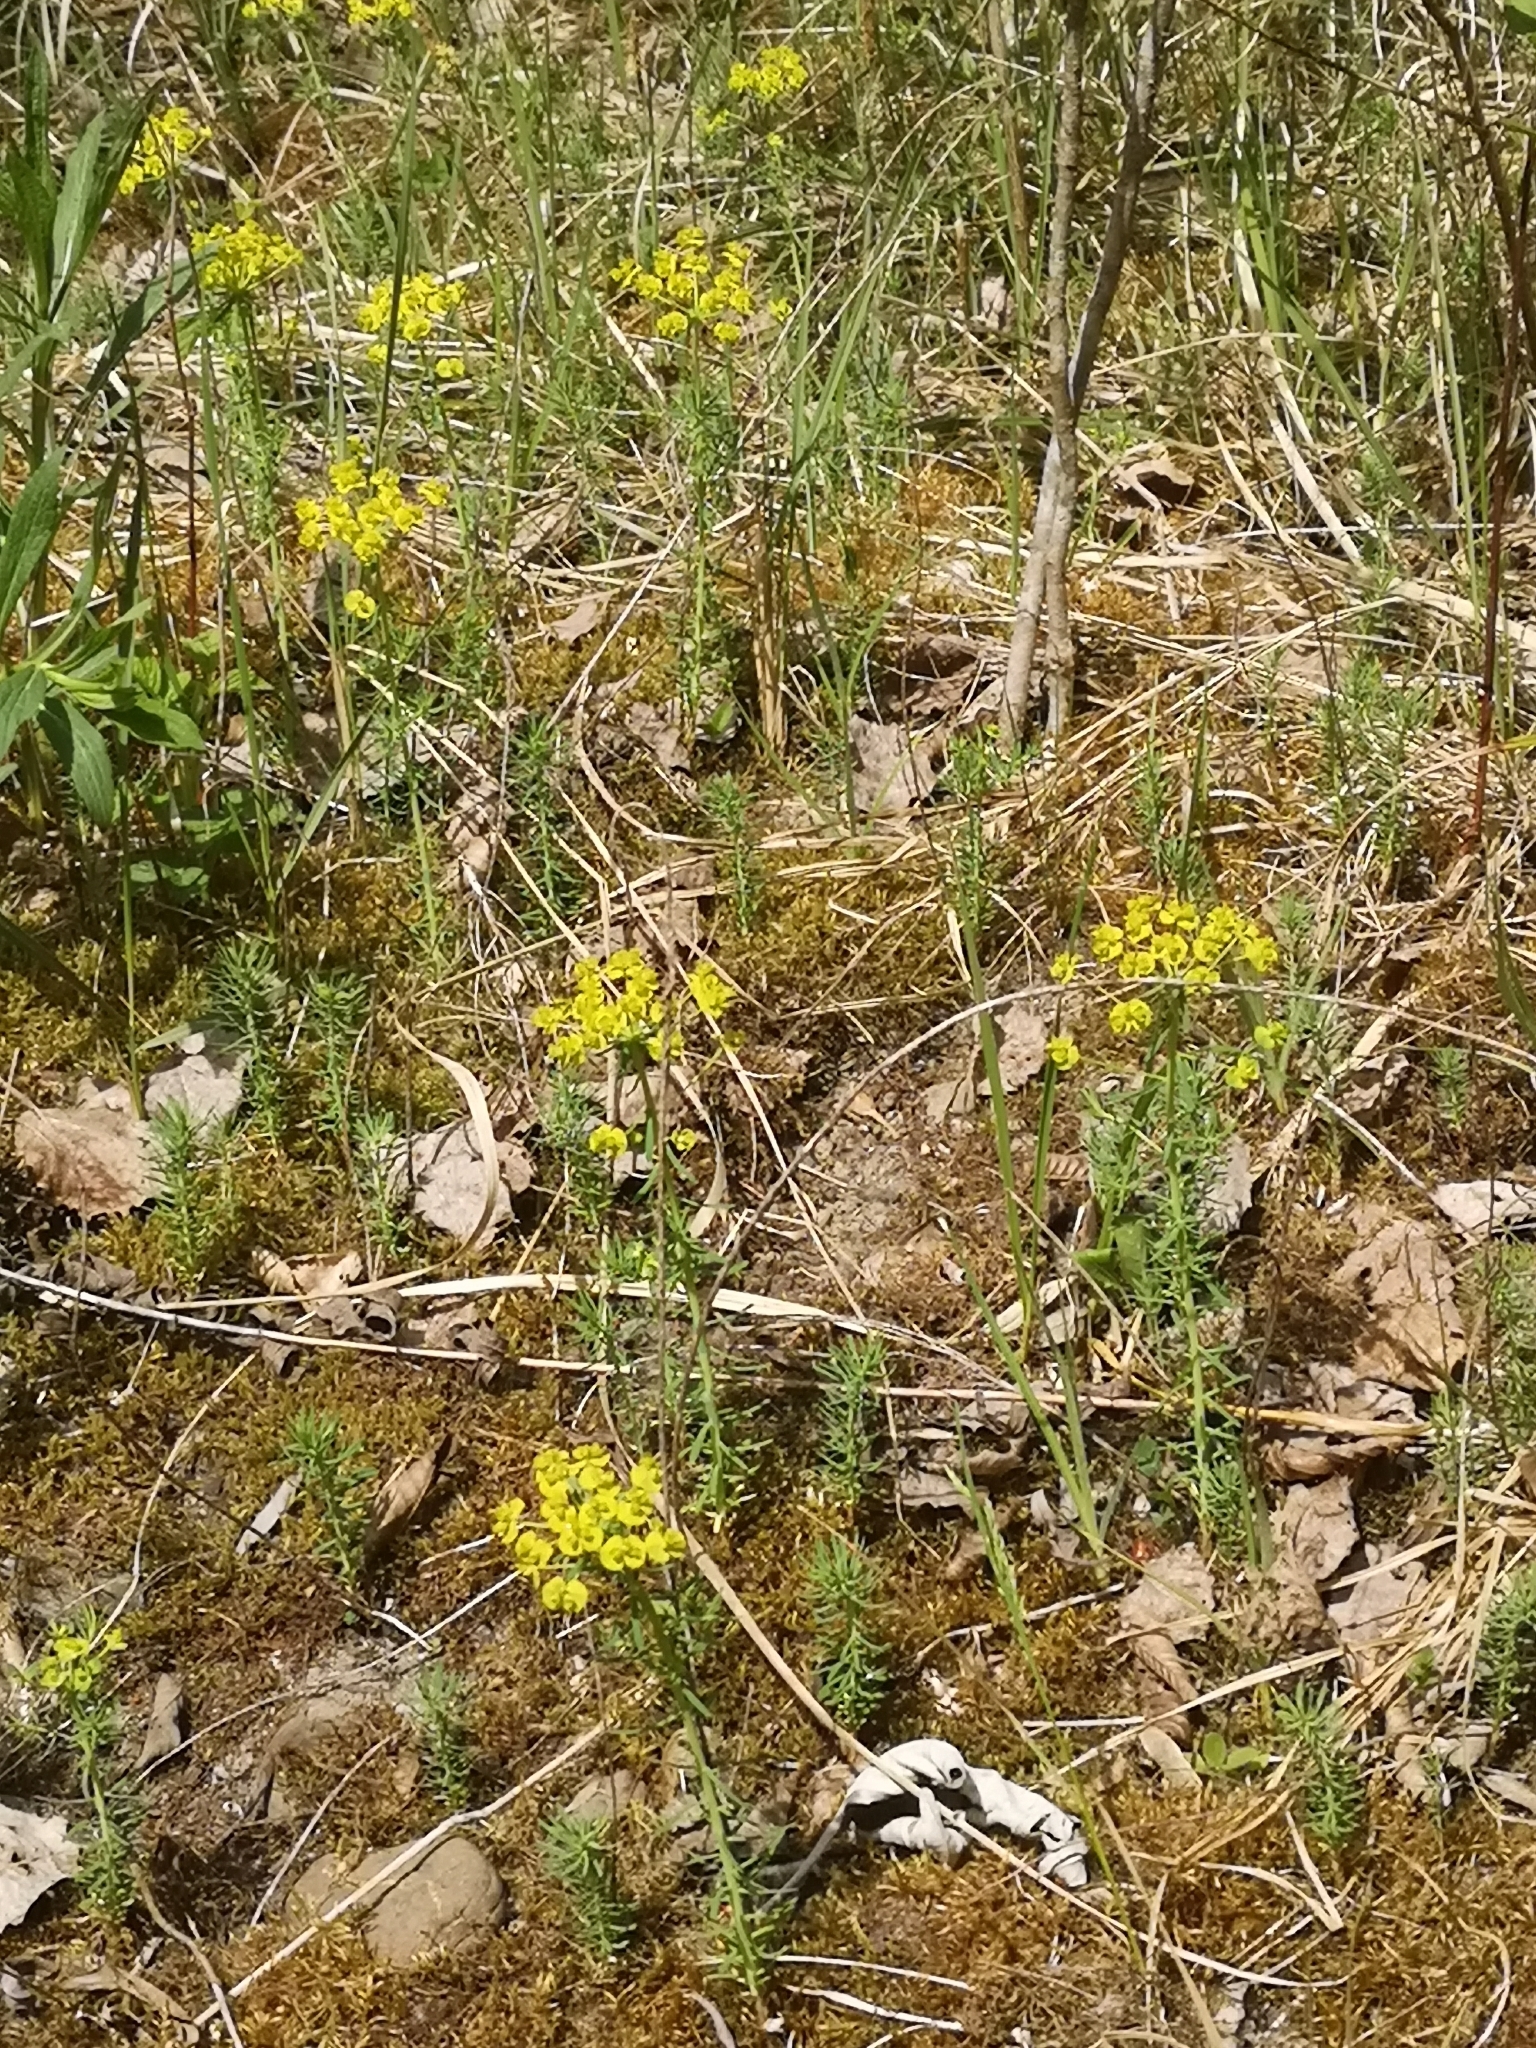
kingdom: Plantae
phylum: Tracheophyta
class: Magnoliopsida
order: Malpighiales
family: Euphorbiaceae
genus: Euphorbia
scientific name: Euphorbia cyparissias
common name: Cypress spurge
